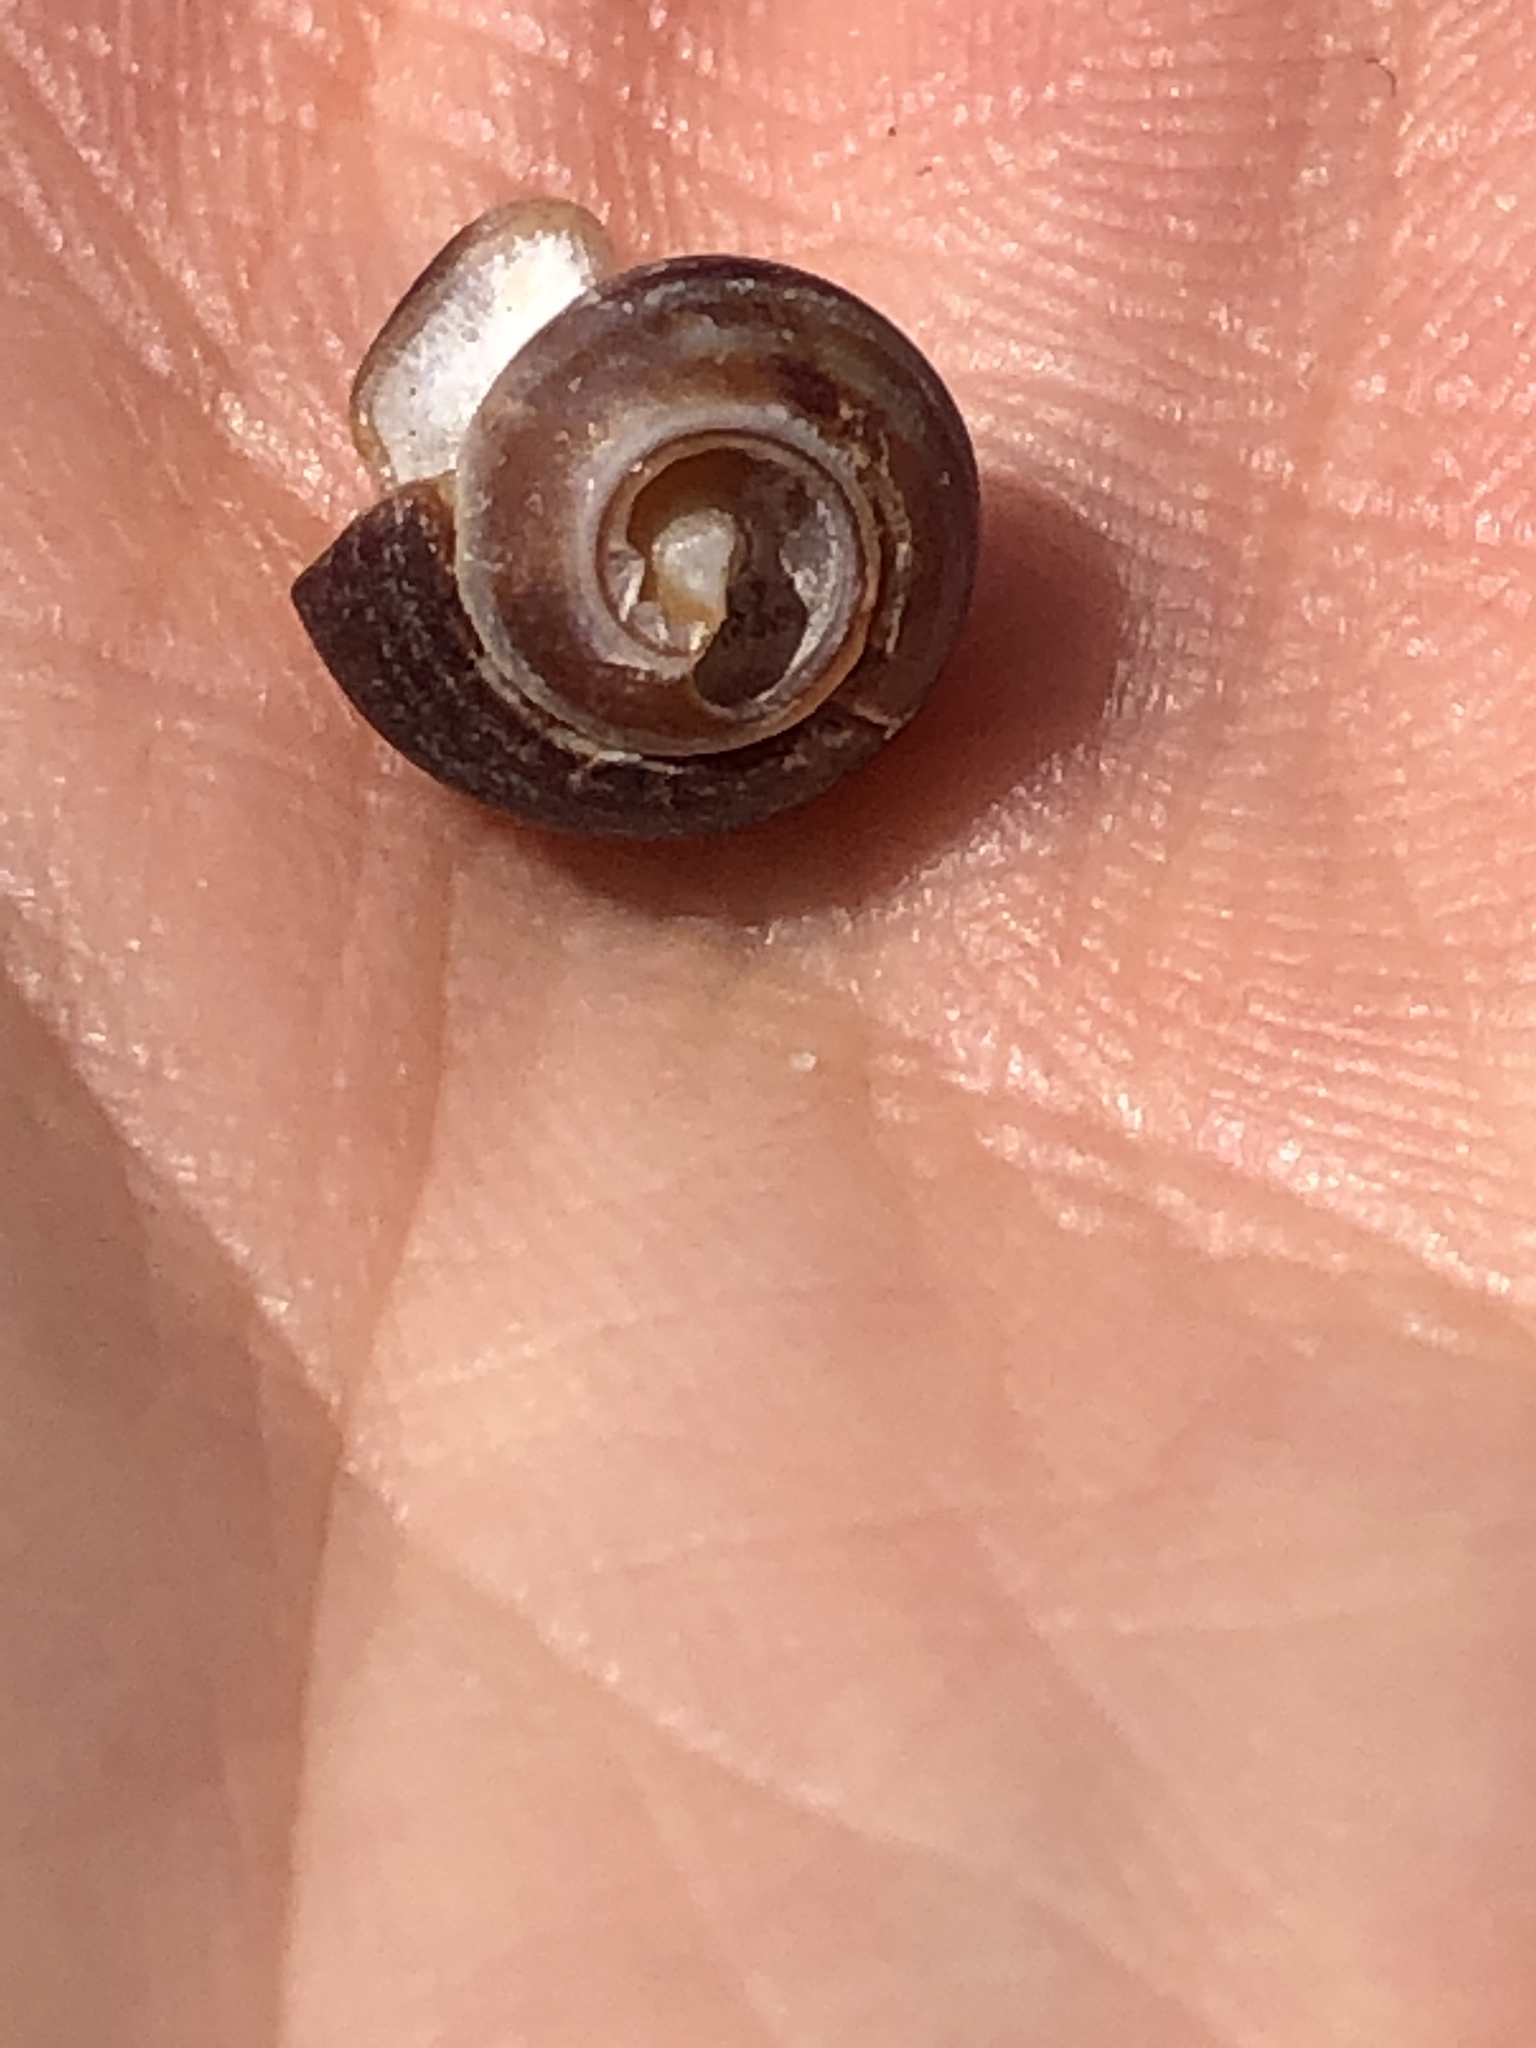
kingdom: Animalia
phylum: Mollusca
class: Gastropoda
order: Littorinimorpha
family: Littorinidae
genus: Littorina
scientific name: Littorina littorea
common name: Common periwinkle
